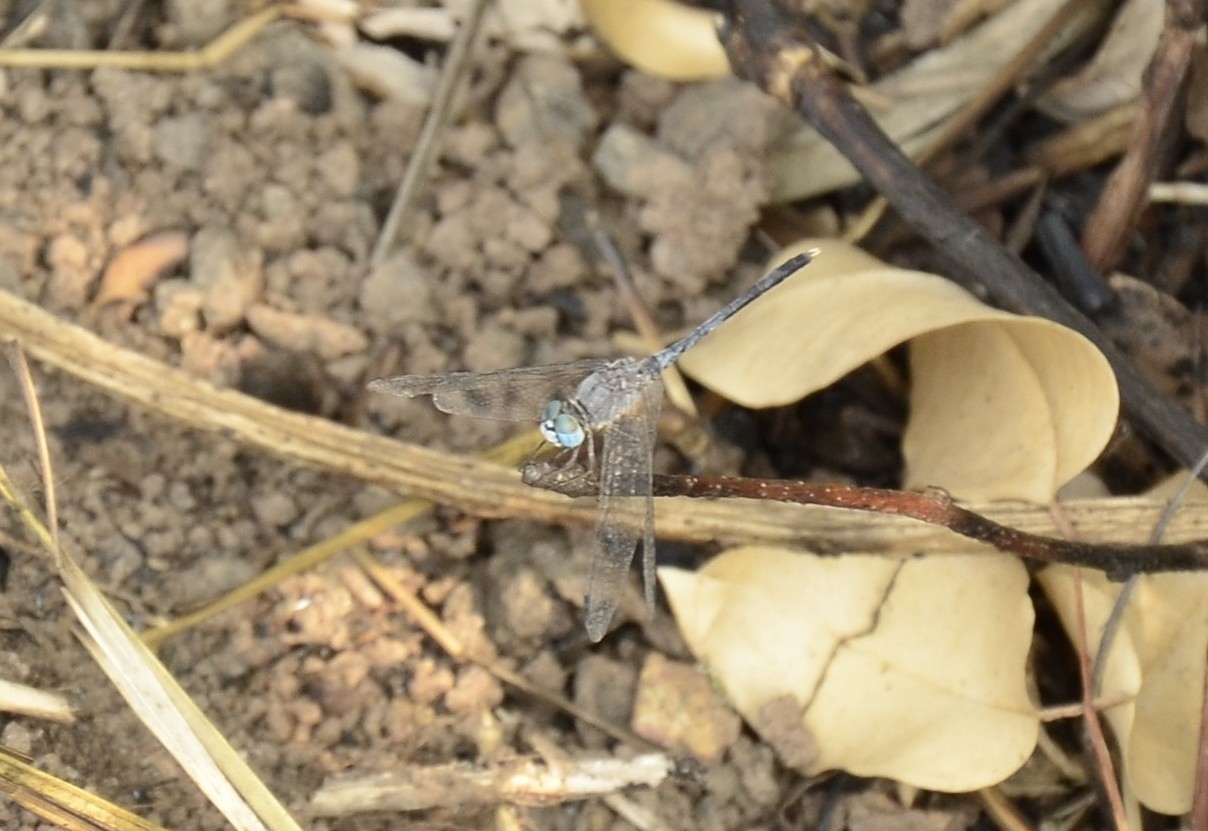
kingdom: Animalia
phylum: Arthropoda
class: Insecta
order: Odonata
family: Libellulidae
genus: Diplacodes
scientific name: Diplacodes trivialis
